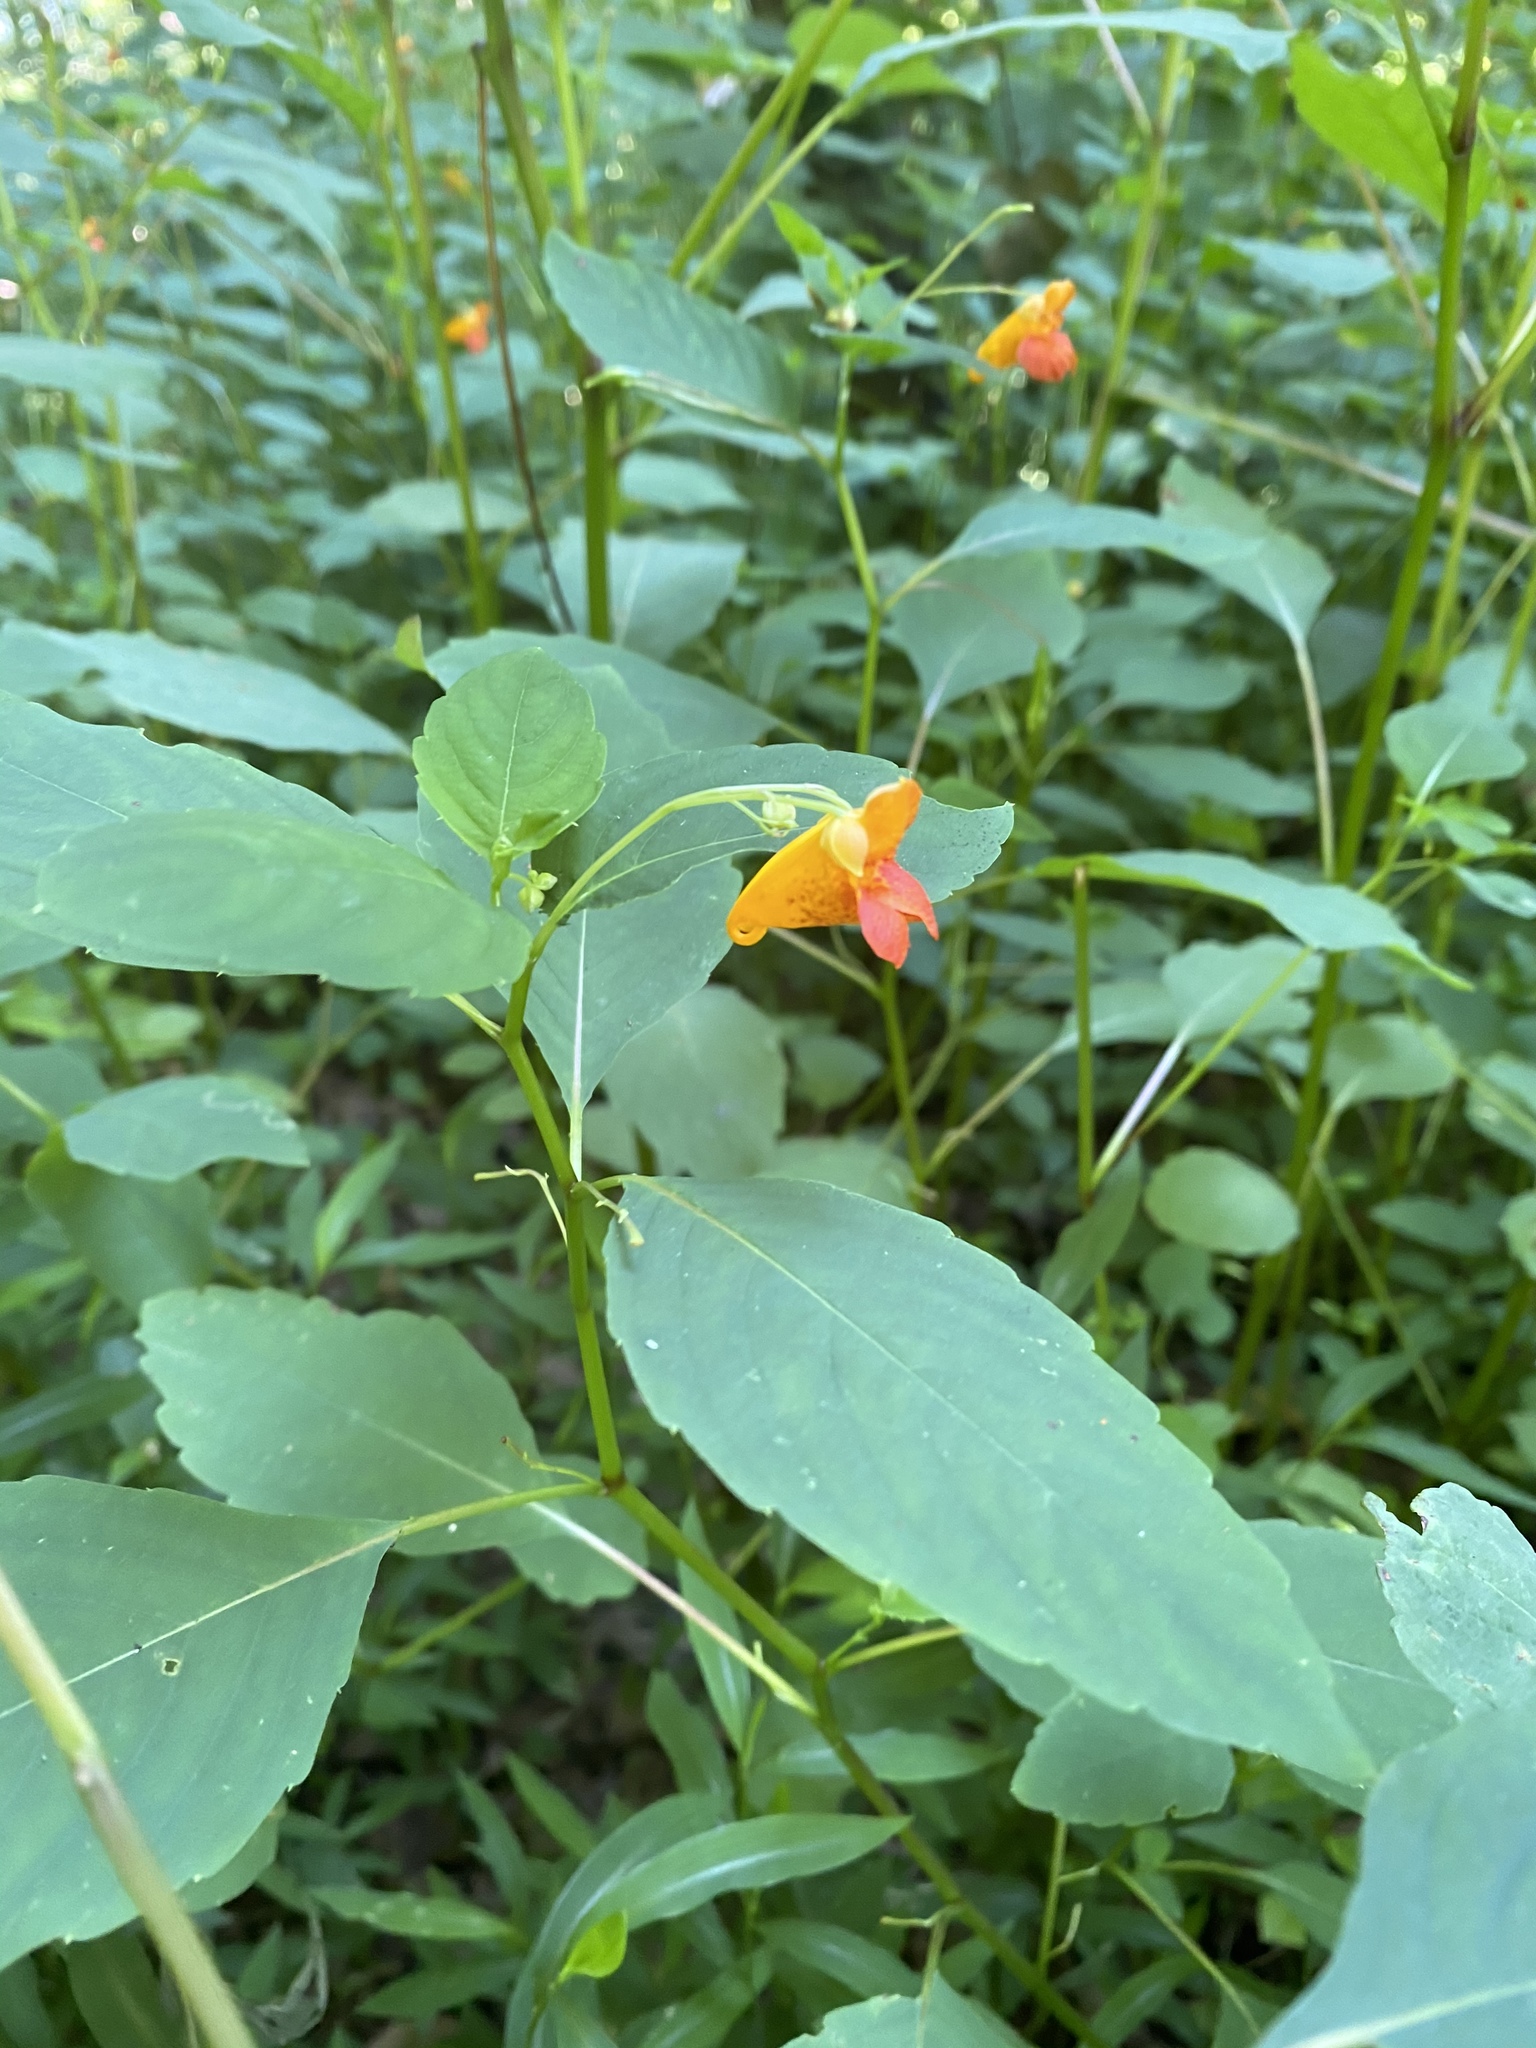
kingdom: Plantae
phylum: Tracheophyta
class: Magnoliopsida
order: Ericales
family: Balsaminaceae
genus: Impatiens
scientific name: Impatiens capensis
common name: Orange balsam
